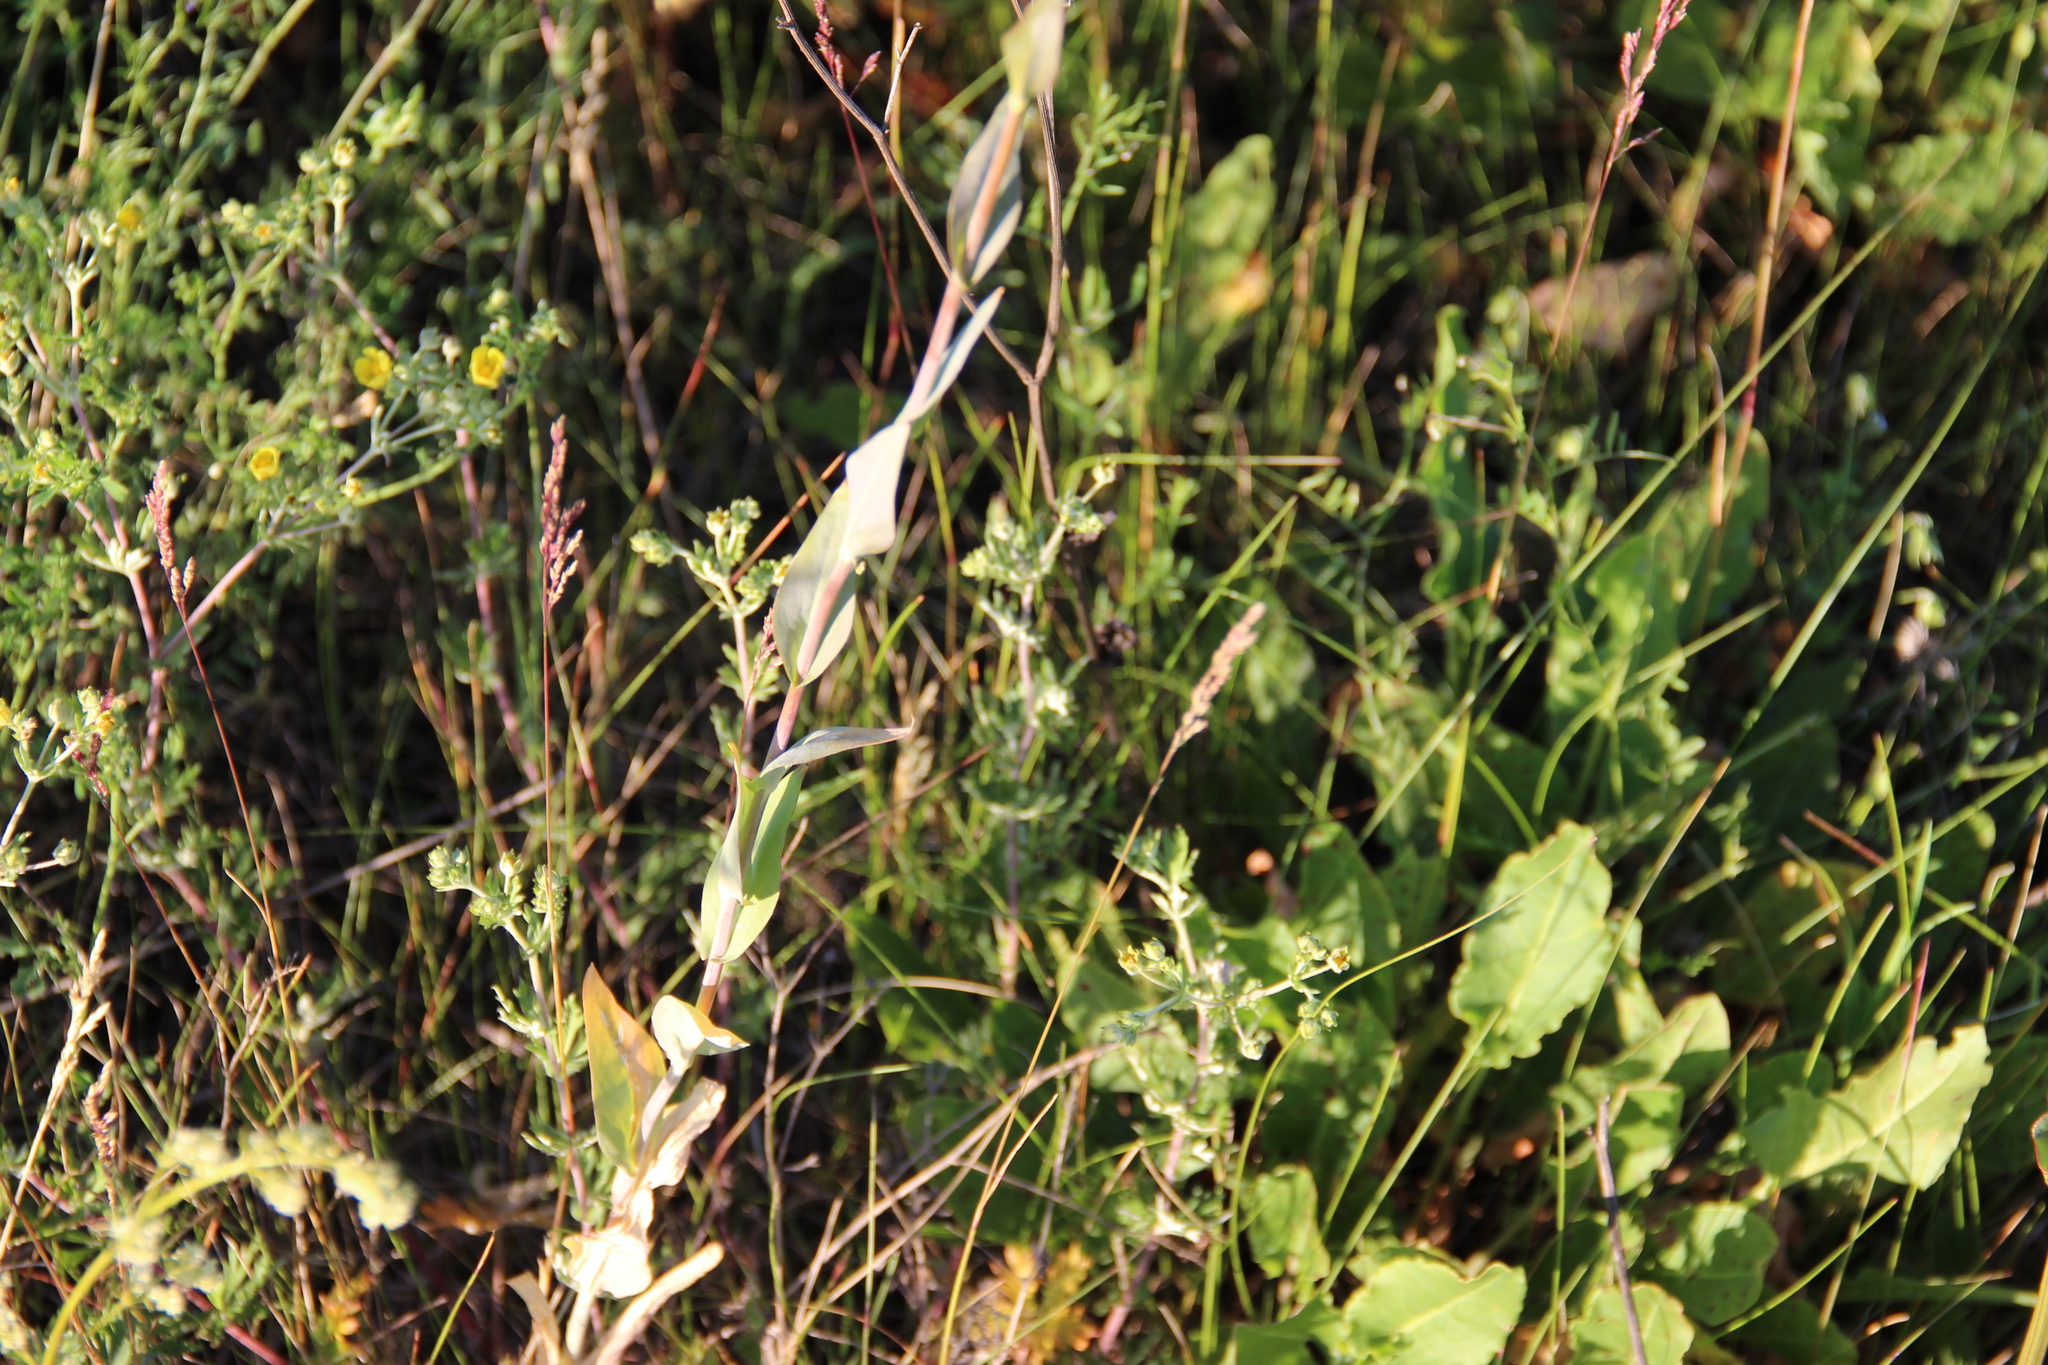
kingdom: Plantae
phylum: Tracheophyta
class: Magnoliopsida
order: Brassicales
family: Brassicaceae
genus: Turritis
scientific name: Turritis glabra
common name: Tower rockcress
